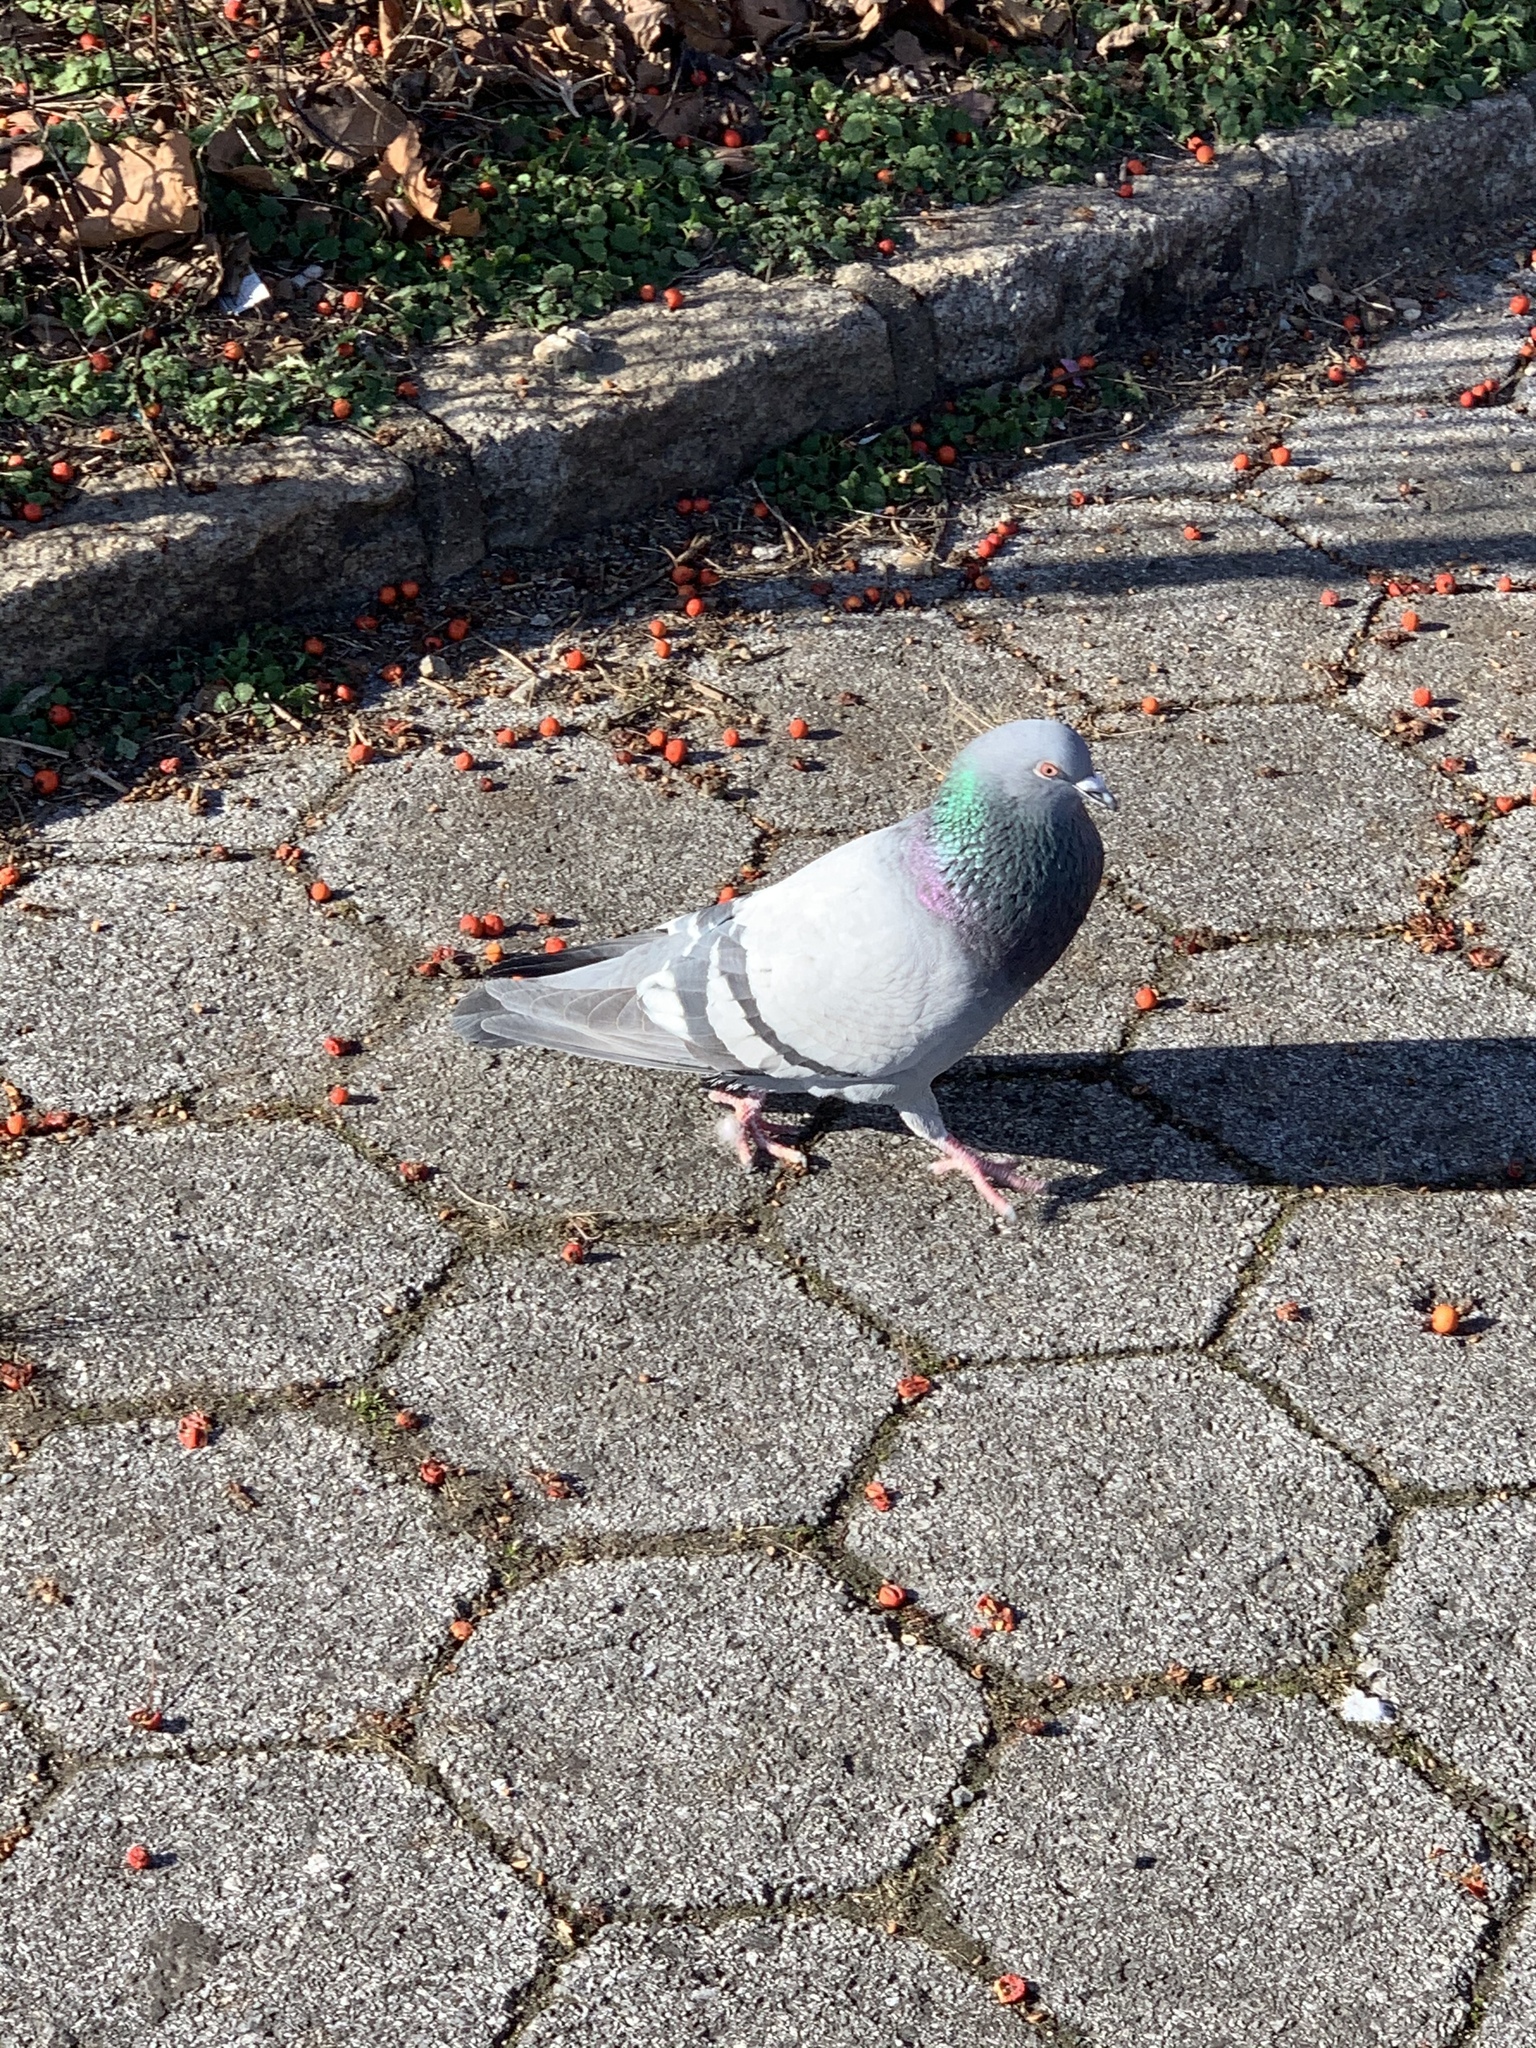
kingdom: Animalia
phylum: Chordata
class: Aves
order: Columbiformes
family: Columbidae
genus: Columba
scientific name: Columba livia
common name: Rock pigeon
